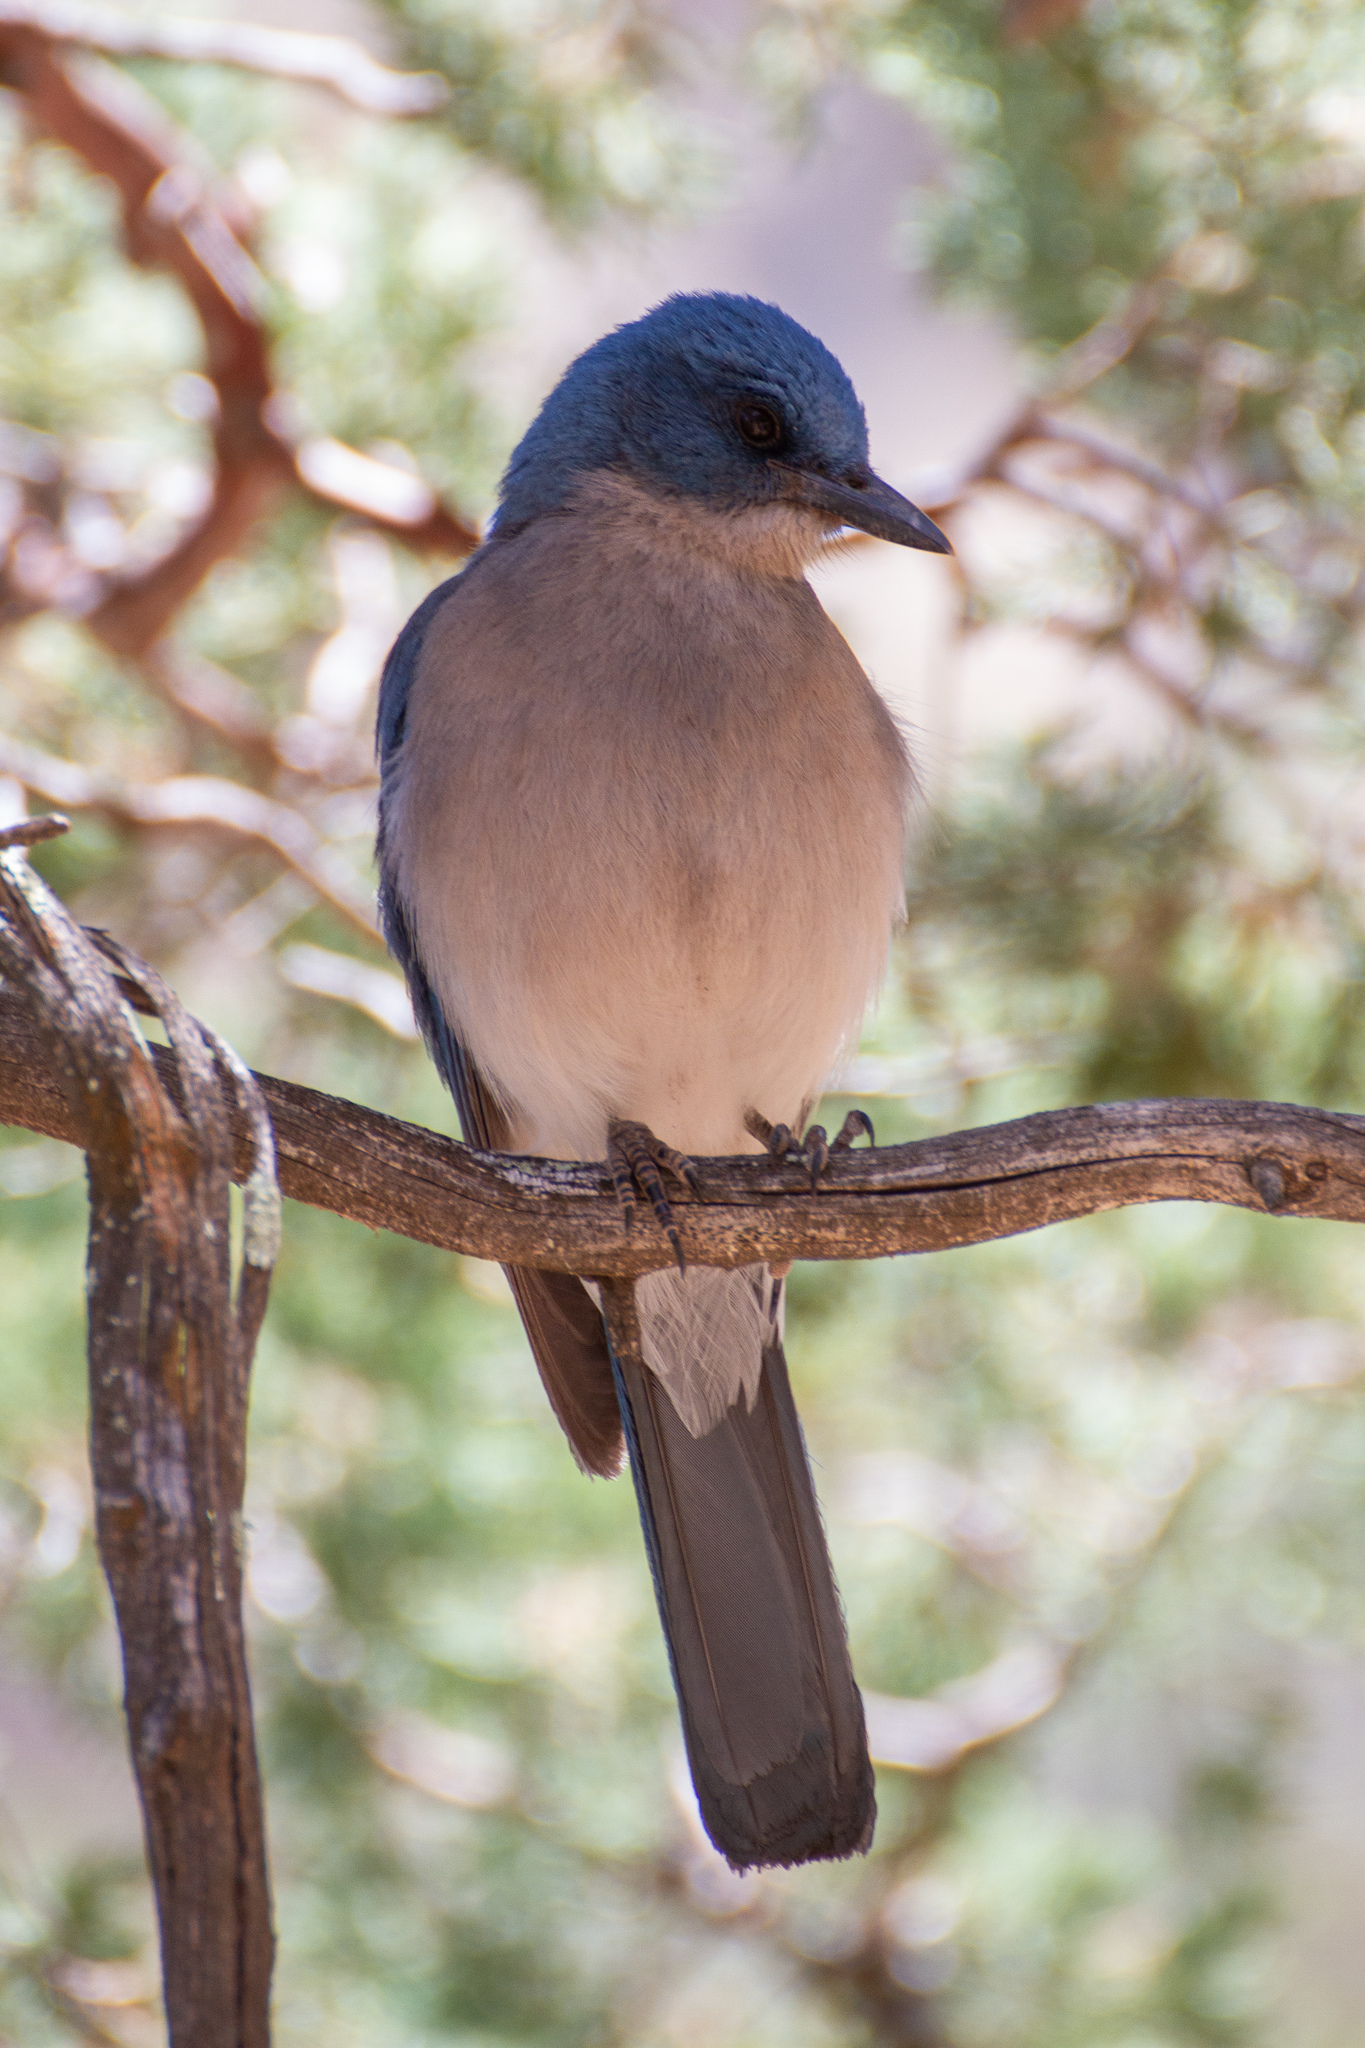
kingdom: Animalia
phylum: Chordata
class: Aves
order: Passeriformes
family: Corvidae
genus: Aphelocoma
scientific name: Aphelocoma wollweberi
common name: Mexican jay
